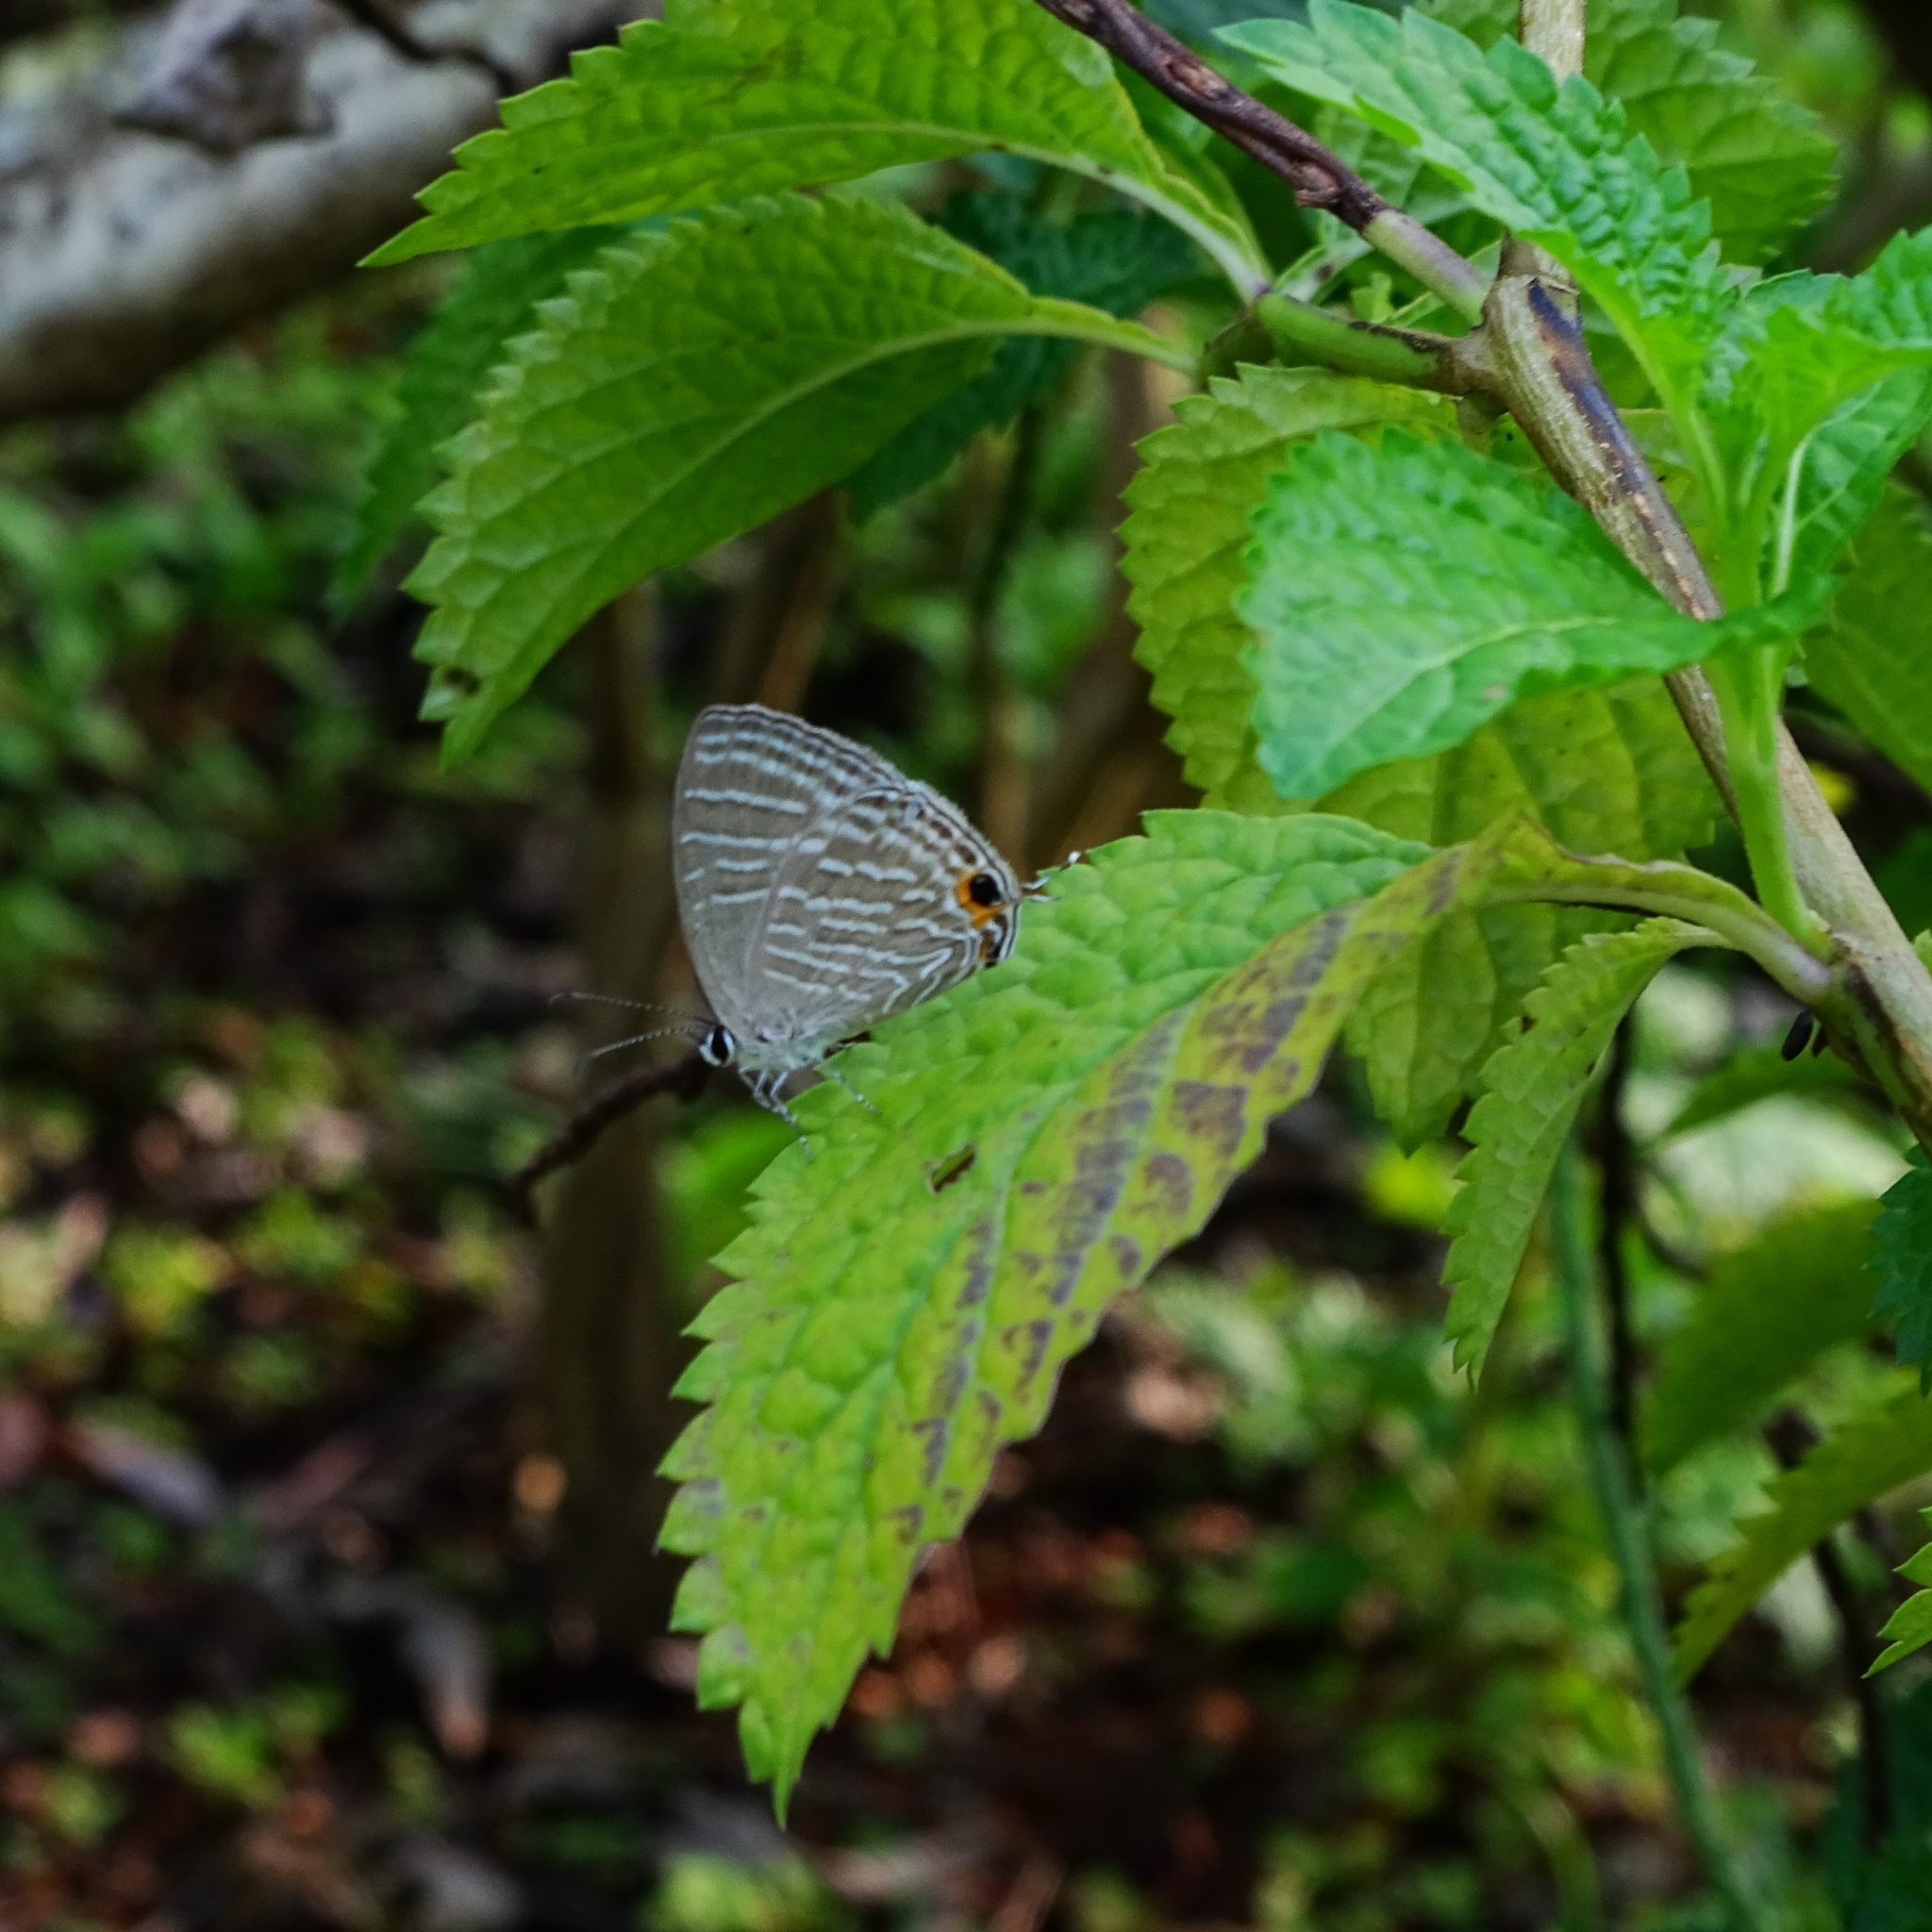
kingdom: Animalia
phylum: Arthropoda
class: Insecta
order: Lepidoptera
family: Lycaenidae
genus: Jamides
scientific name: Jamides celeno
